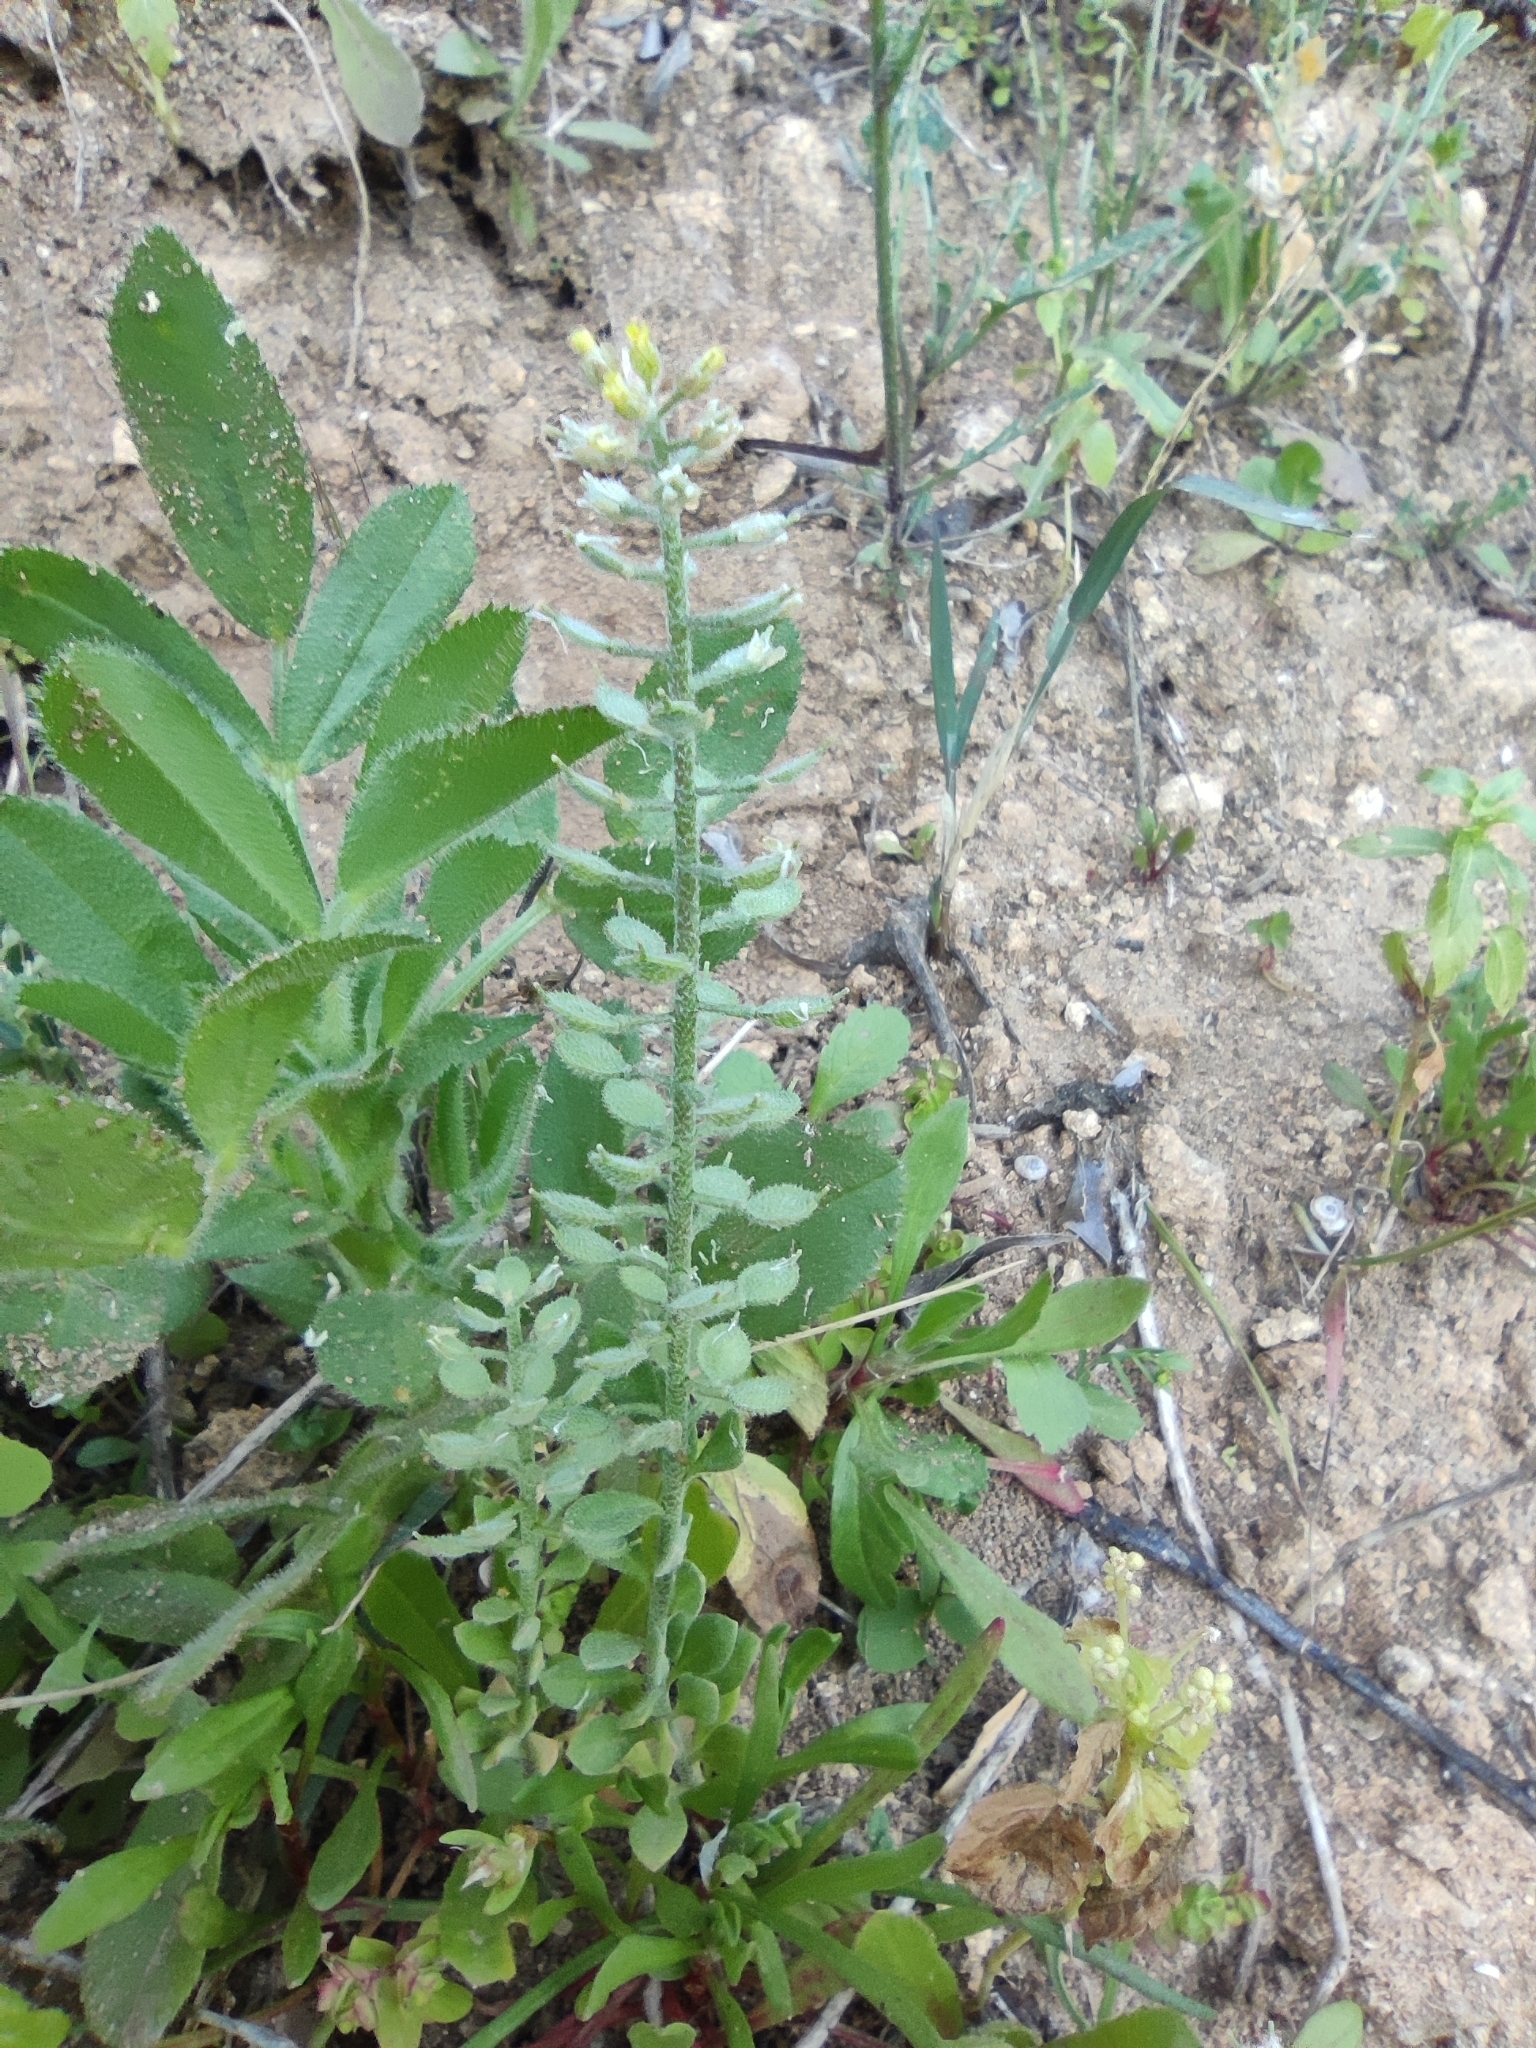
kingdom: Plantae
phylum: Tracheophyta
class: Magnoliopsida
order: Brassicales
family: Brassicaceae
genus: Alyssum
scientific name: Alyssum simplex
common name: Alyssum
